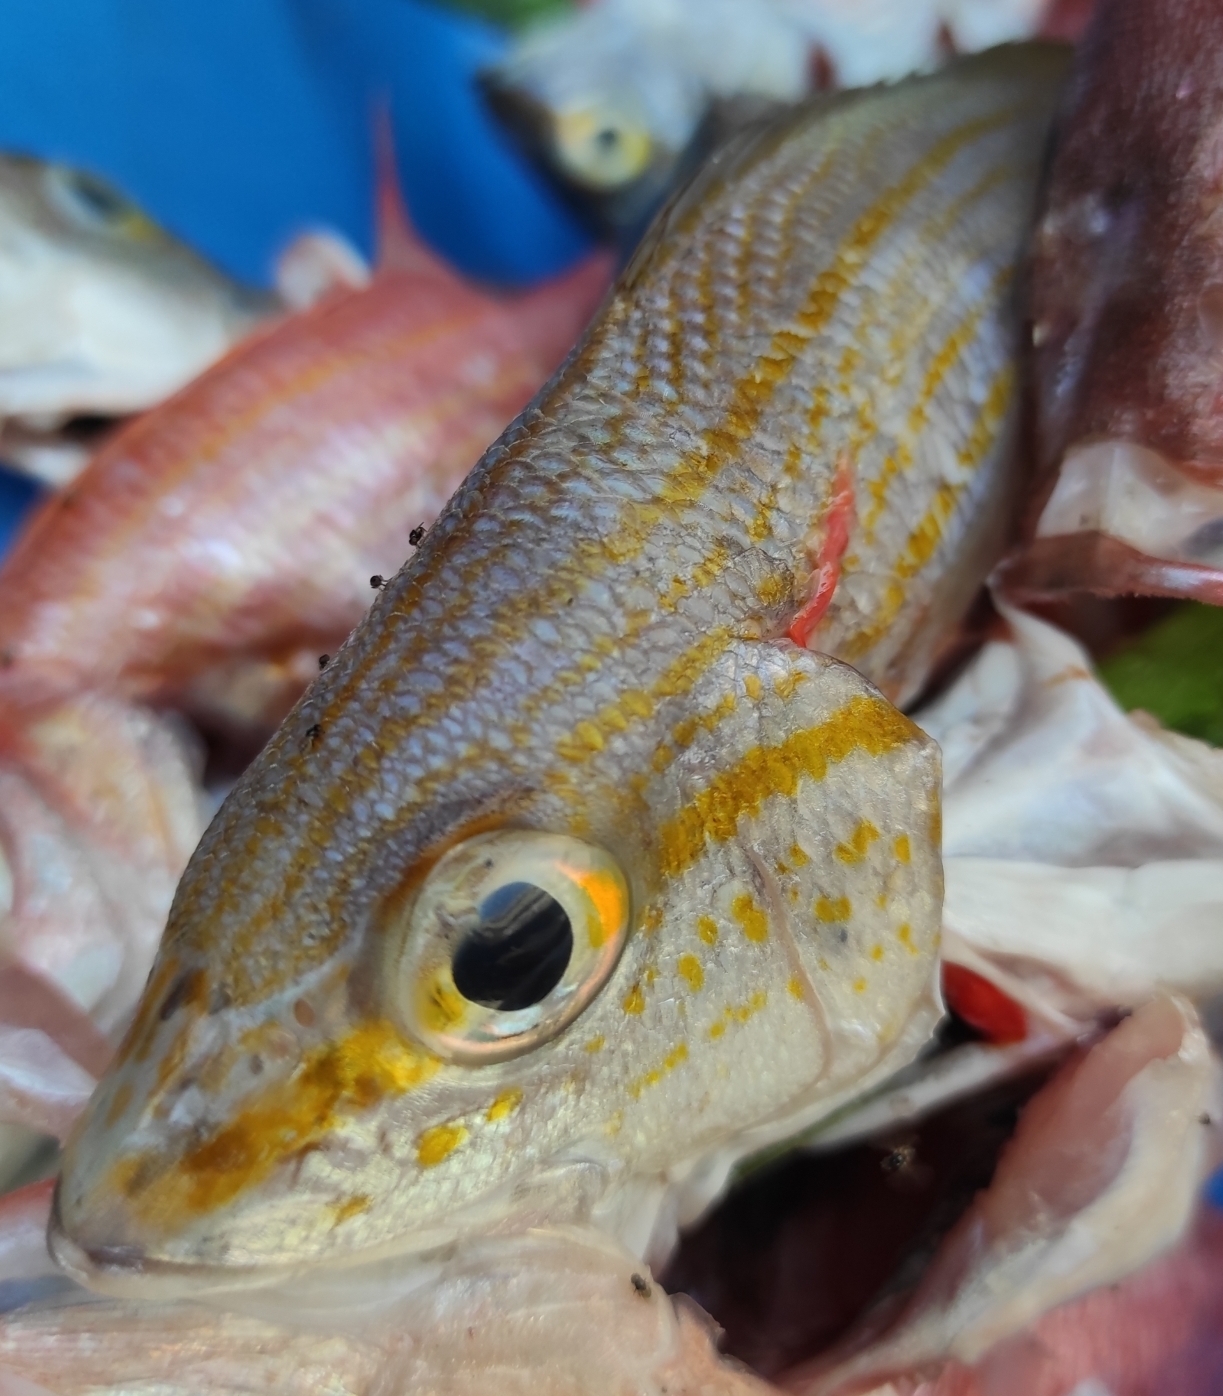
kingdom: Animalia
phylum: Chordata
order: Perciformes
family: Haemulidae
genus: Haemulon
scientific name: Haemulon aurolineatum
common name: Tomtate
